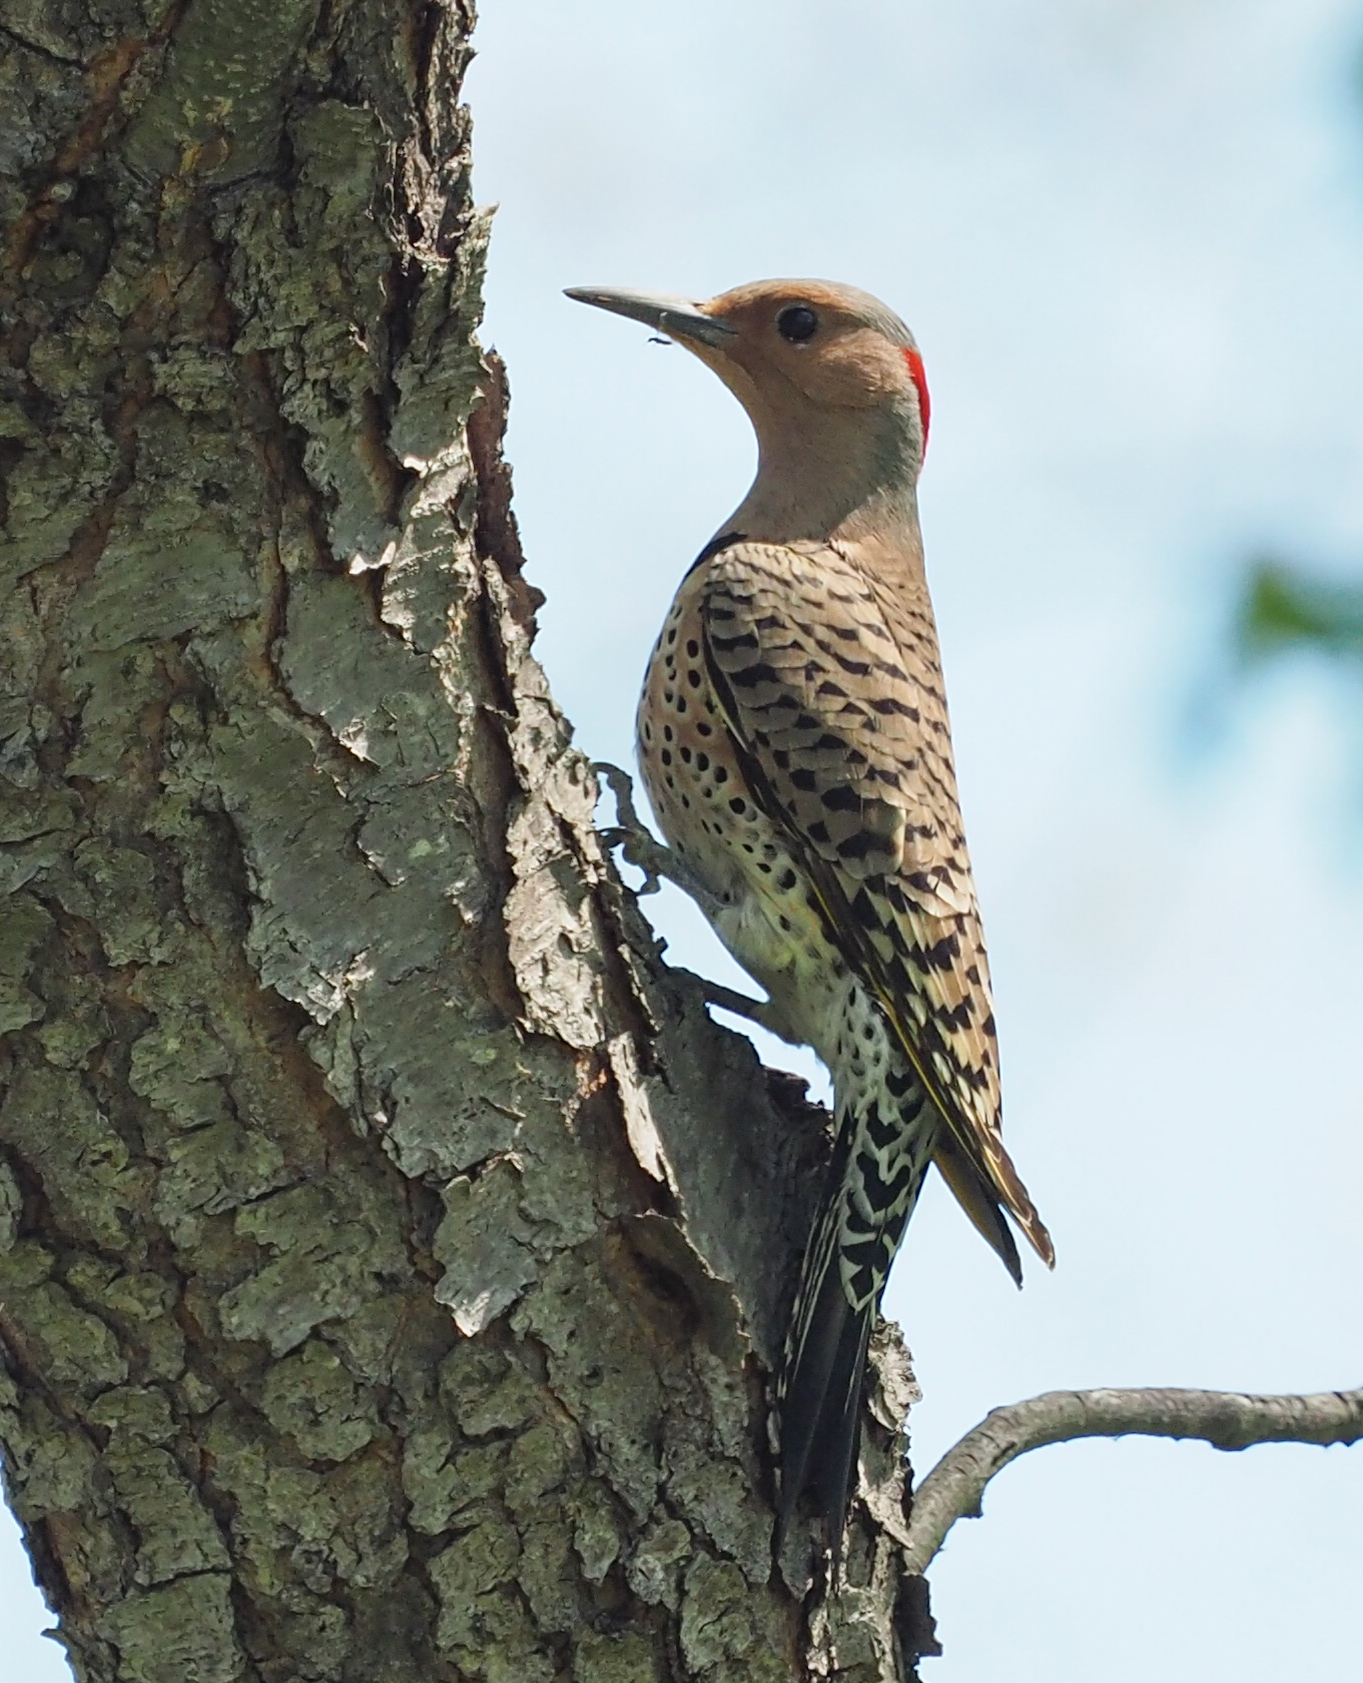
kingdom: Animalia
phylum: Chordata
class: Aves
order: Piciformes
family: Picidae
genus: Colaptes
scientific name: Colaptes auratus
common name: Northern flicker
